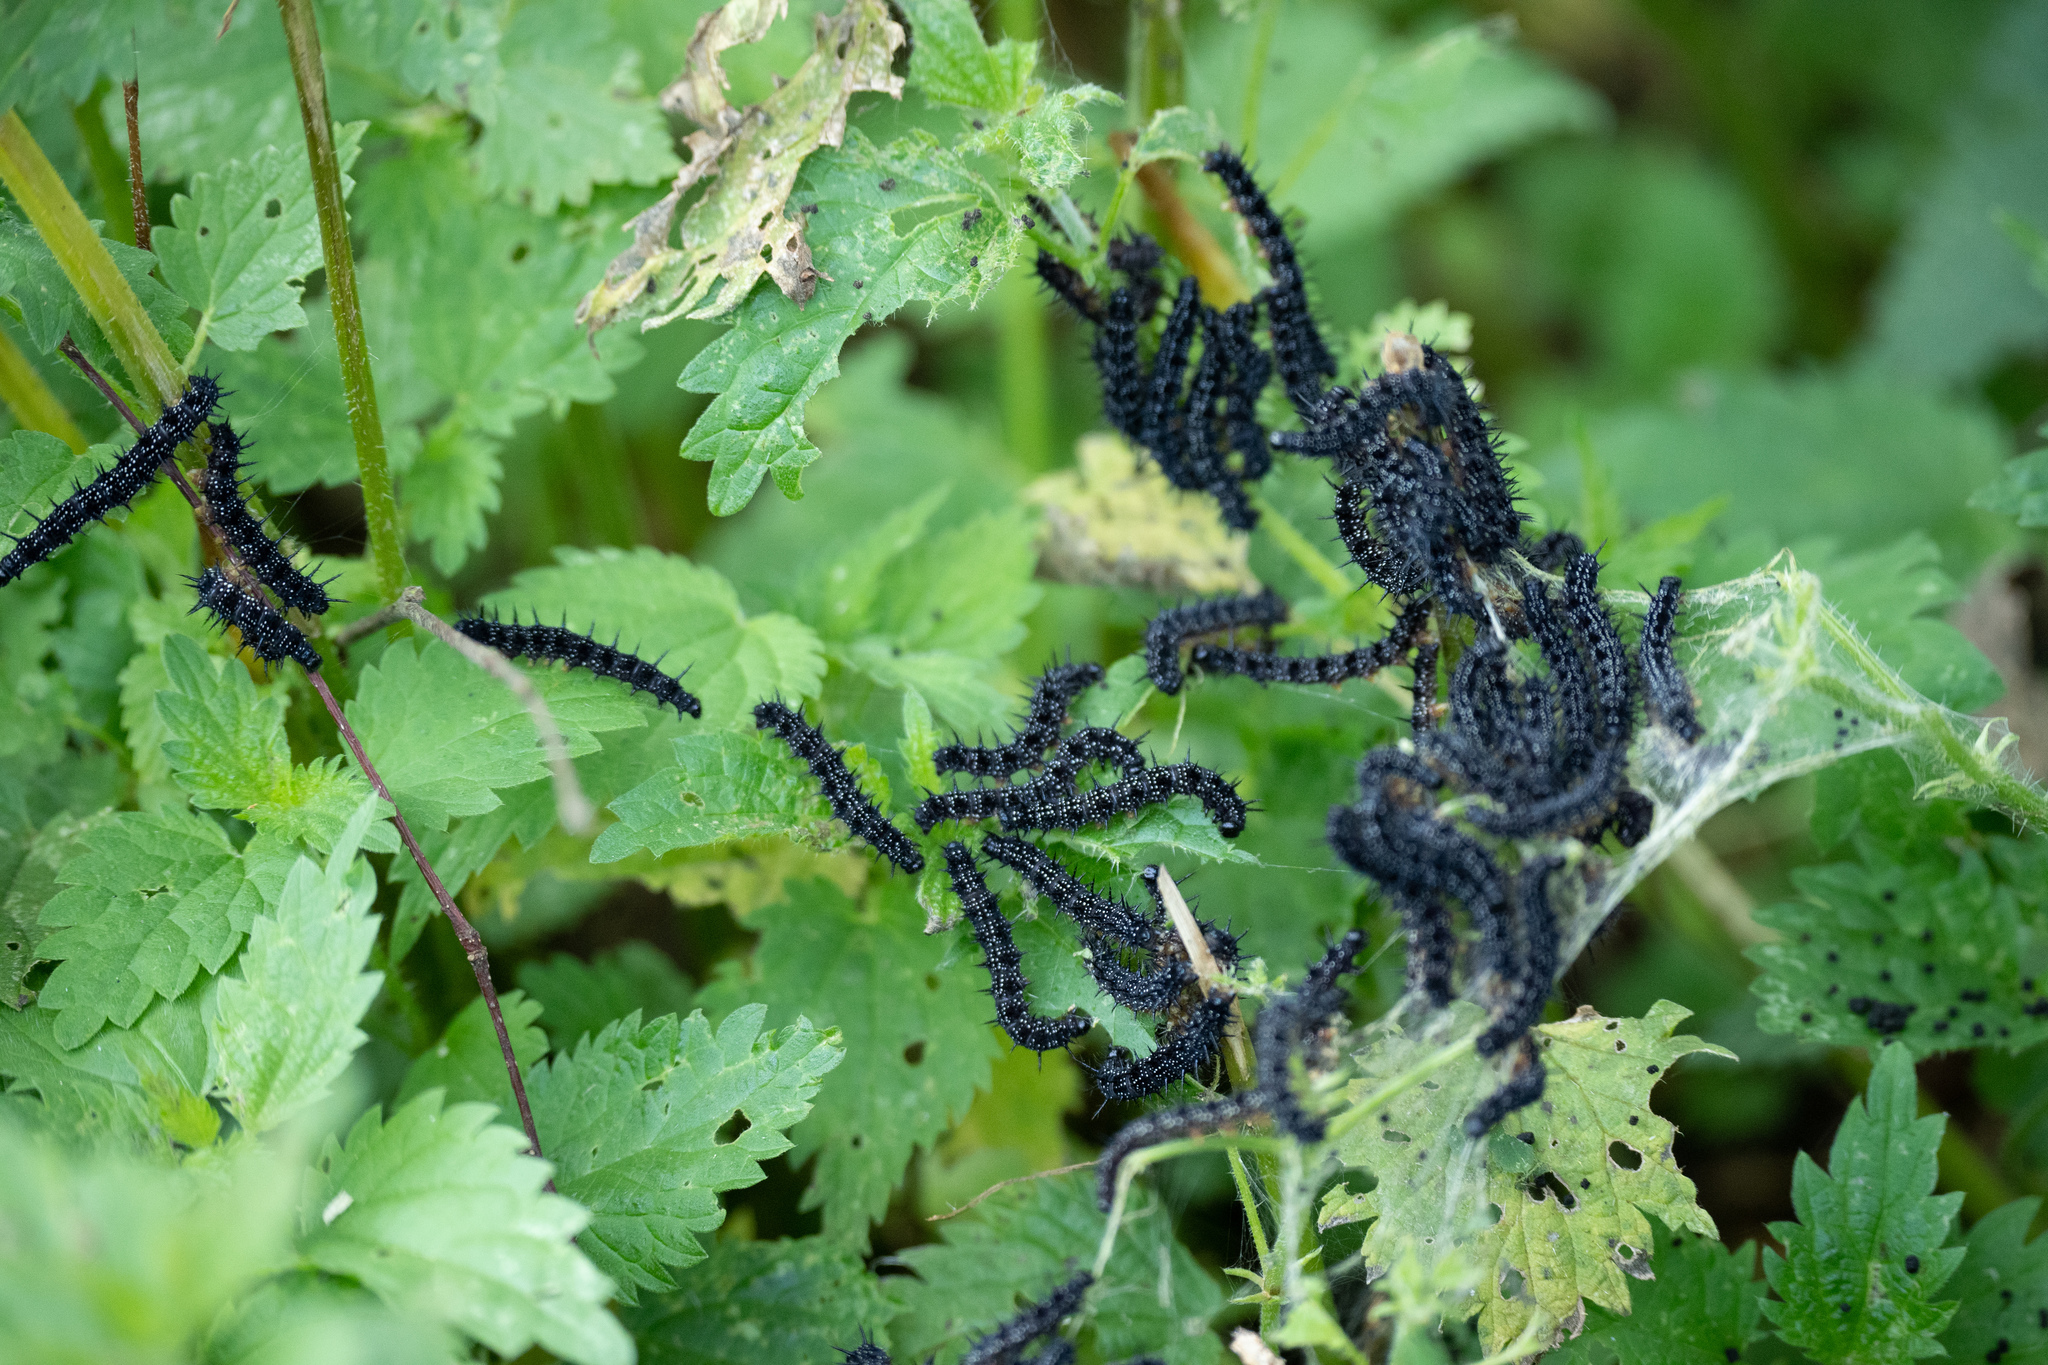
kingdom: Animalia
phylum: Arthropoda
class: Insecta
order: Lepidoptera
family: Nymphalidae
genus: Aglais
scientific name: Aglais io
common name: Peacock
